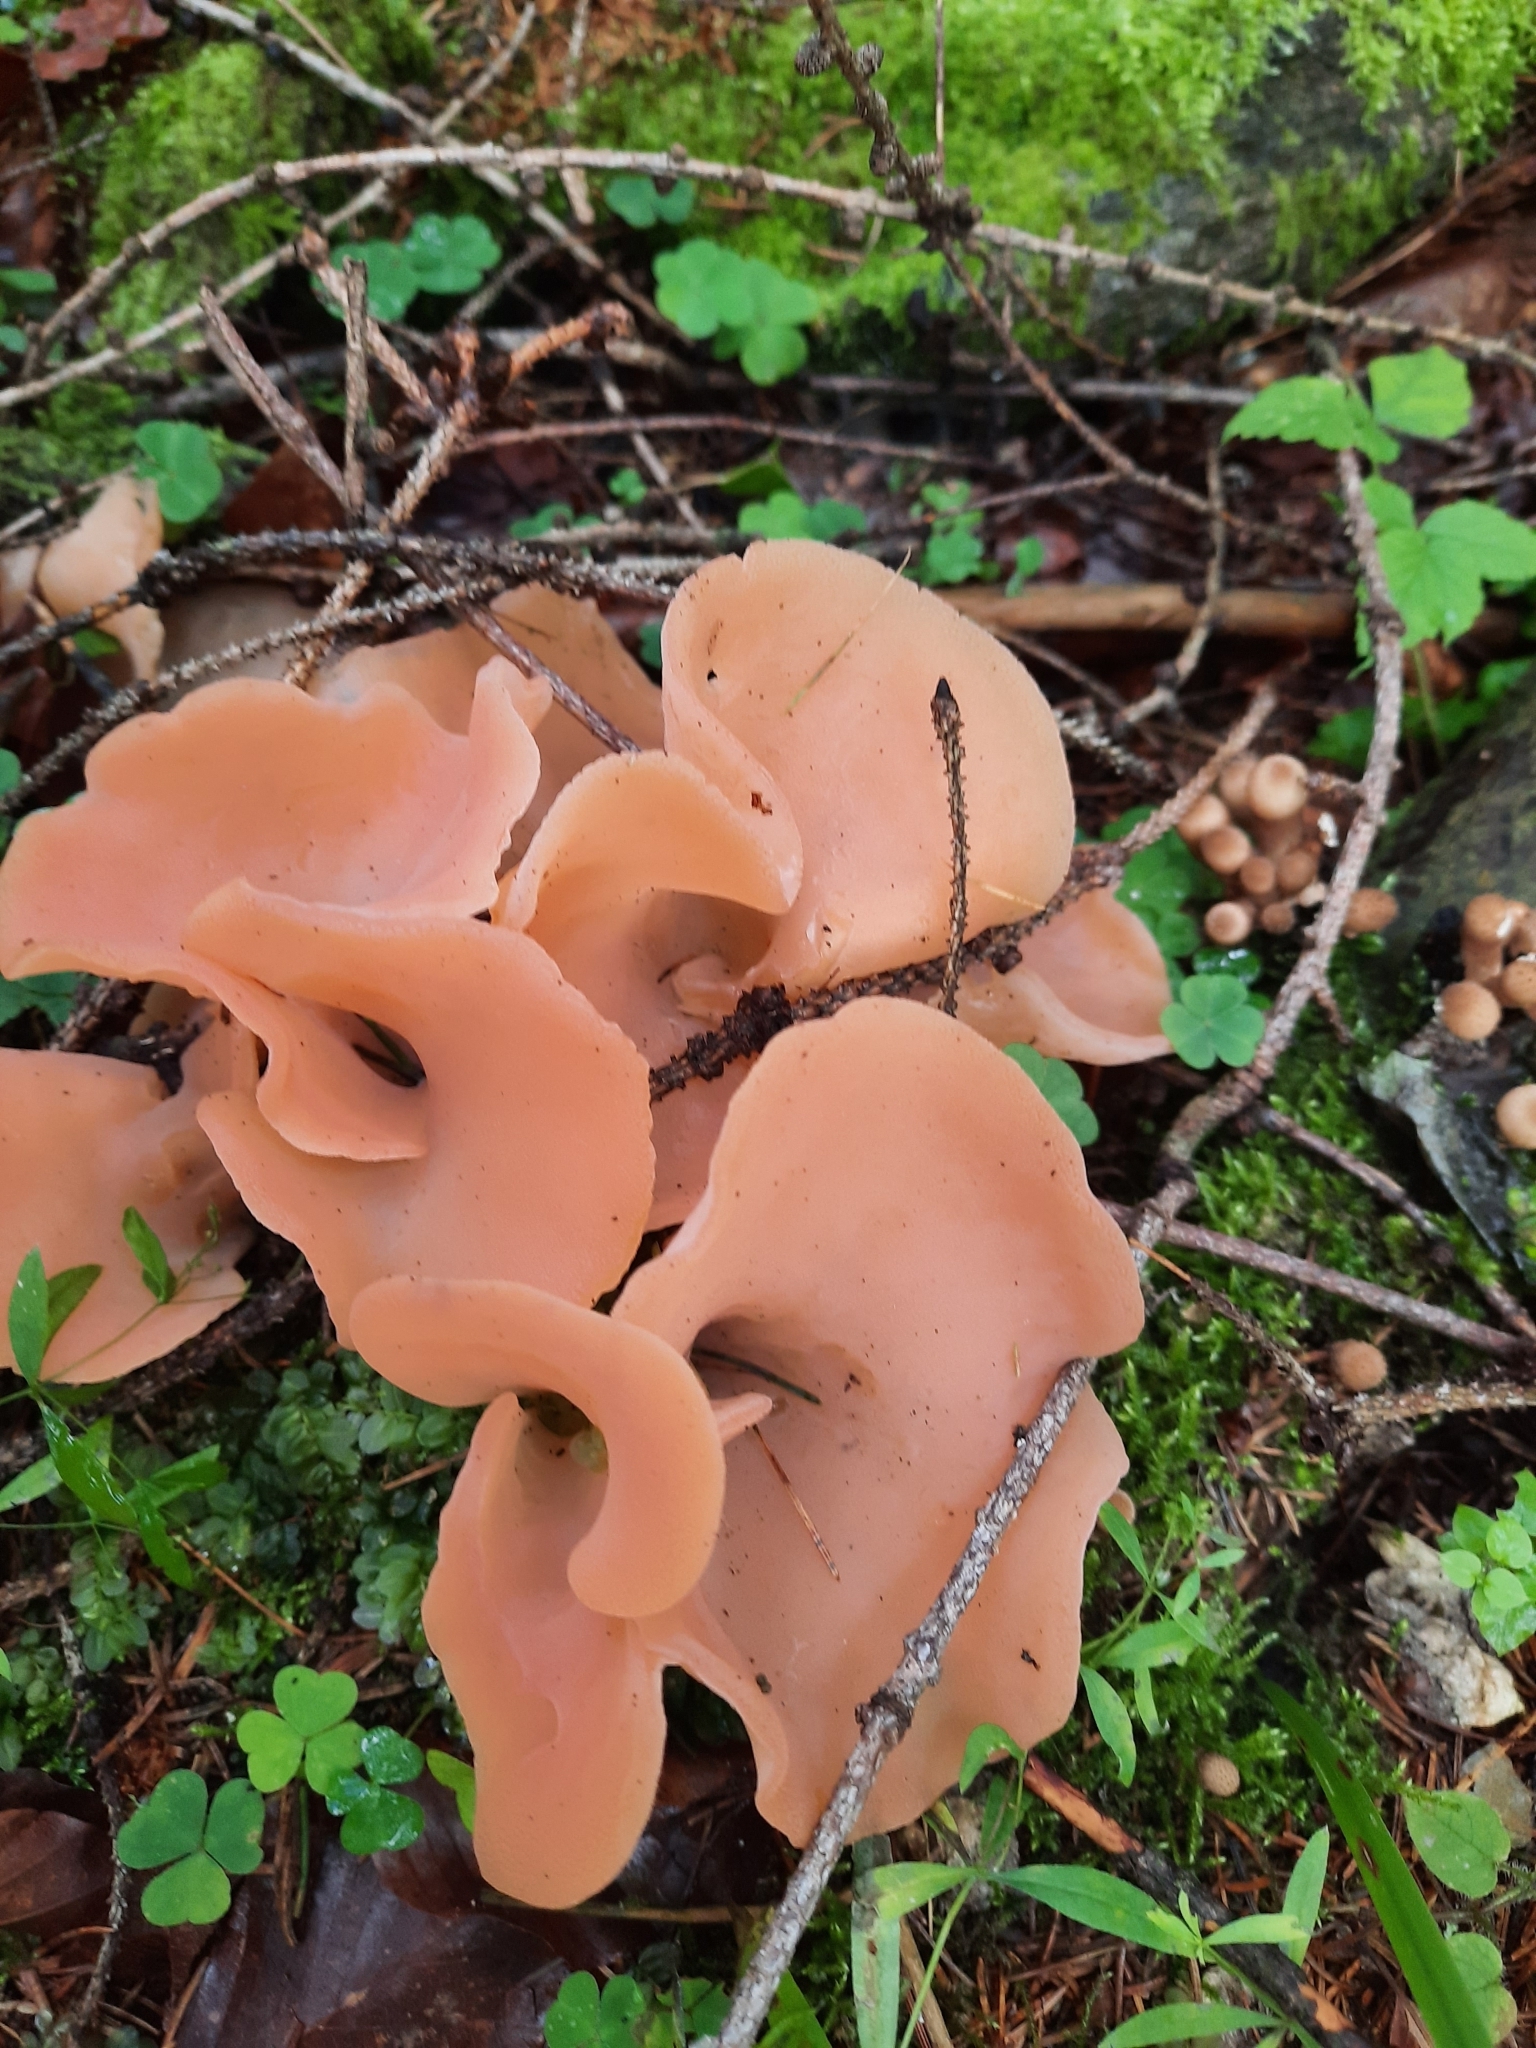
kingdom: Fungi
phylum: Basidiomycota
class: Agaricomycetes
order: Auriculariales
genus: Guepinia
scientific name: Guepinia helvelloides
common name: Salmon salad
